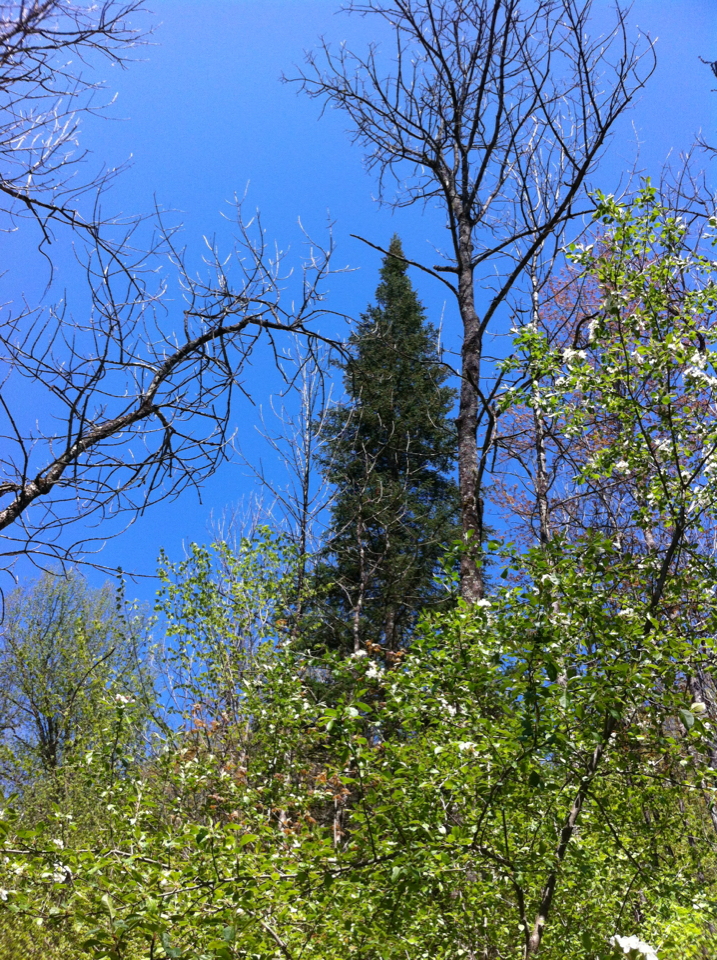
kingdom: Plantae
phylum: Tracheophyta
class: Pinopsida
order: Pinales
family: Pinaceae
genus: Picea
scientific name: Picea rubens
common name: Red spruce
